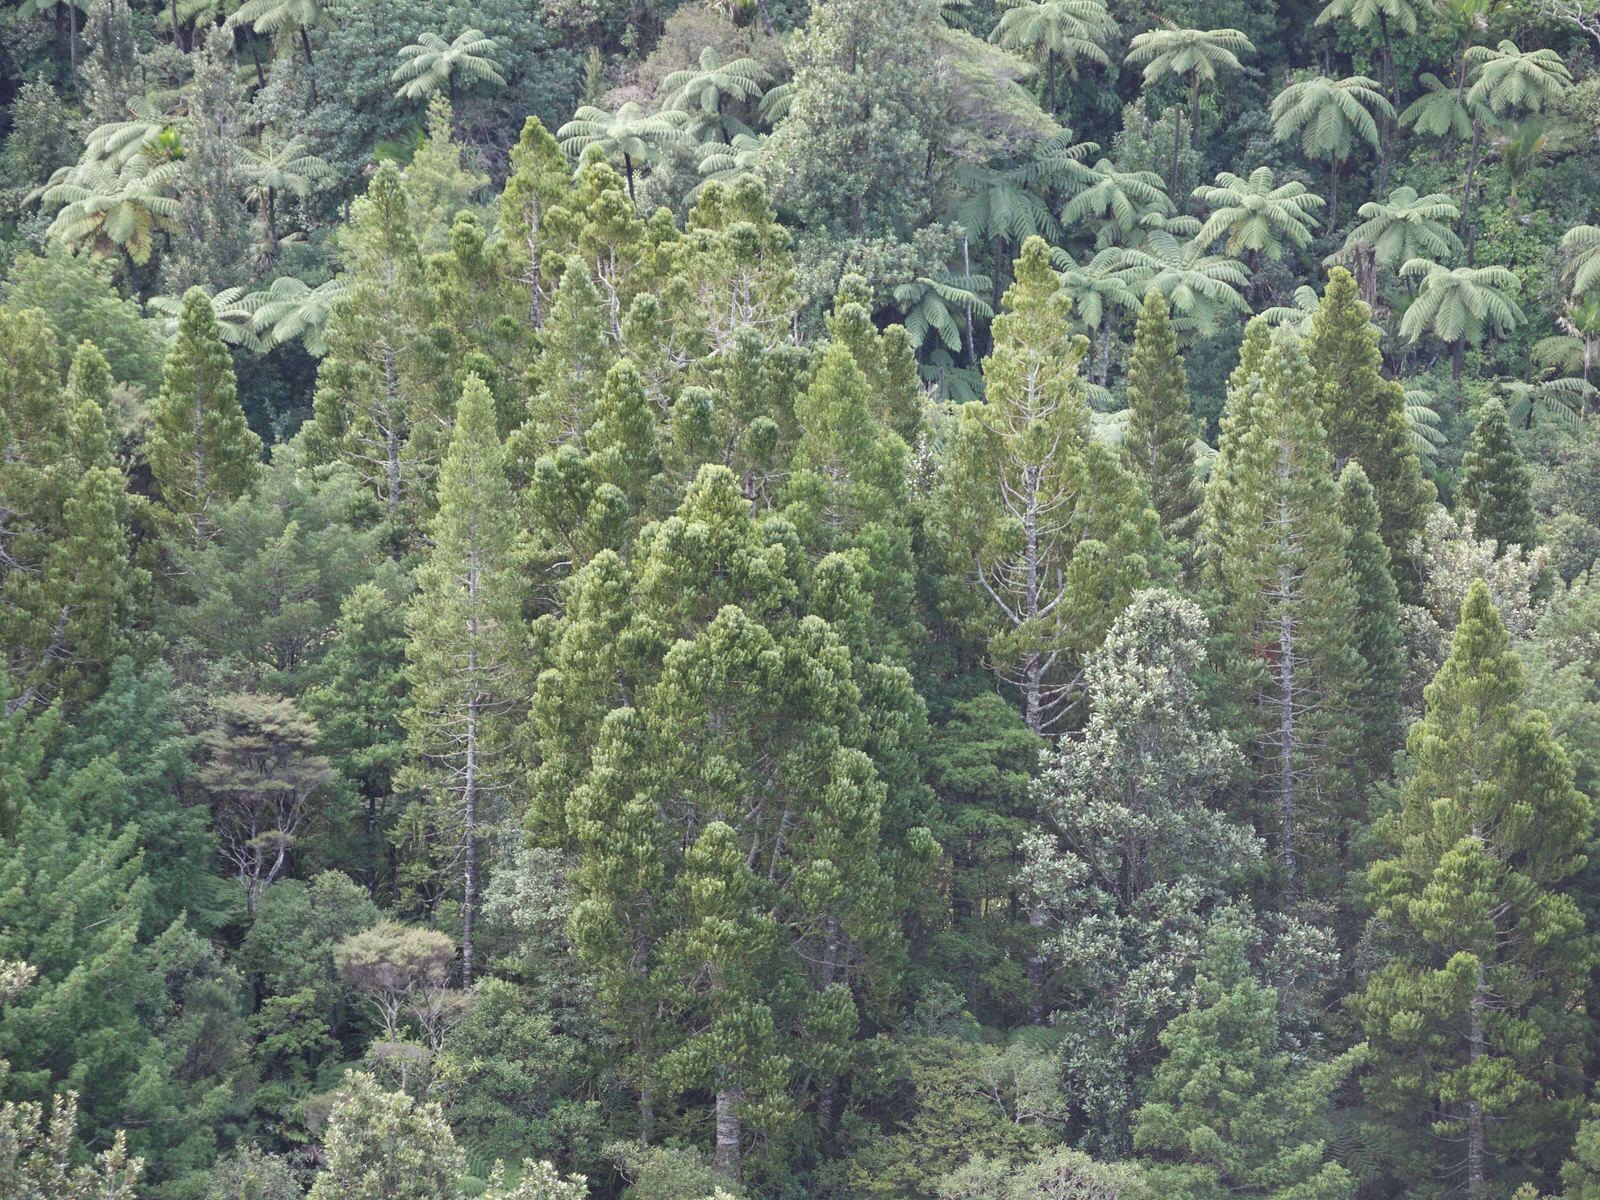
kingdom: Plantae
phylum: Tracheophyta
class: Pinopsida
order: Pinales
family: Araucariaceae
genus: Agathis
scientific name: Agathis australis
